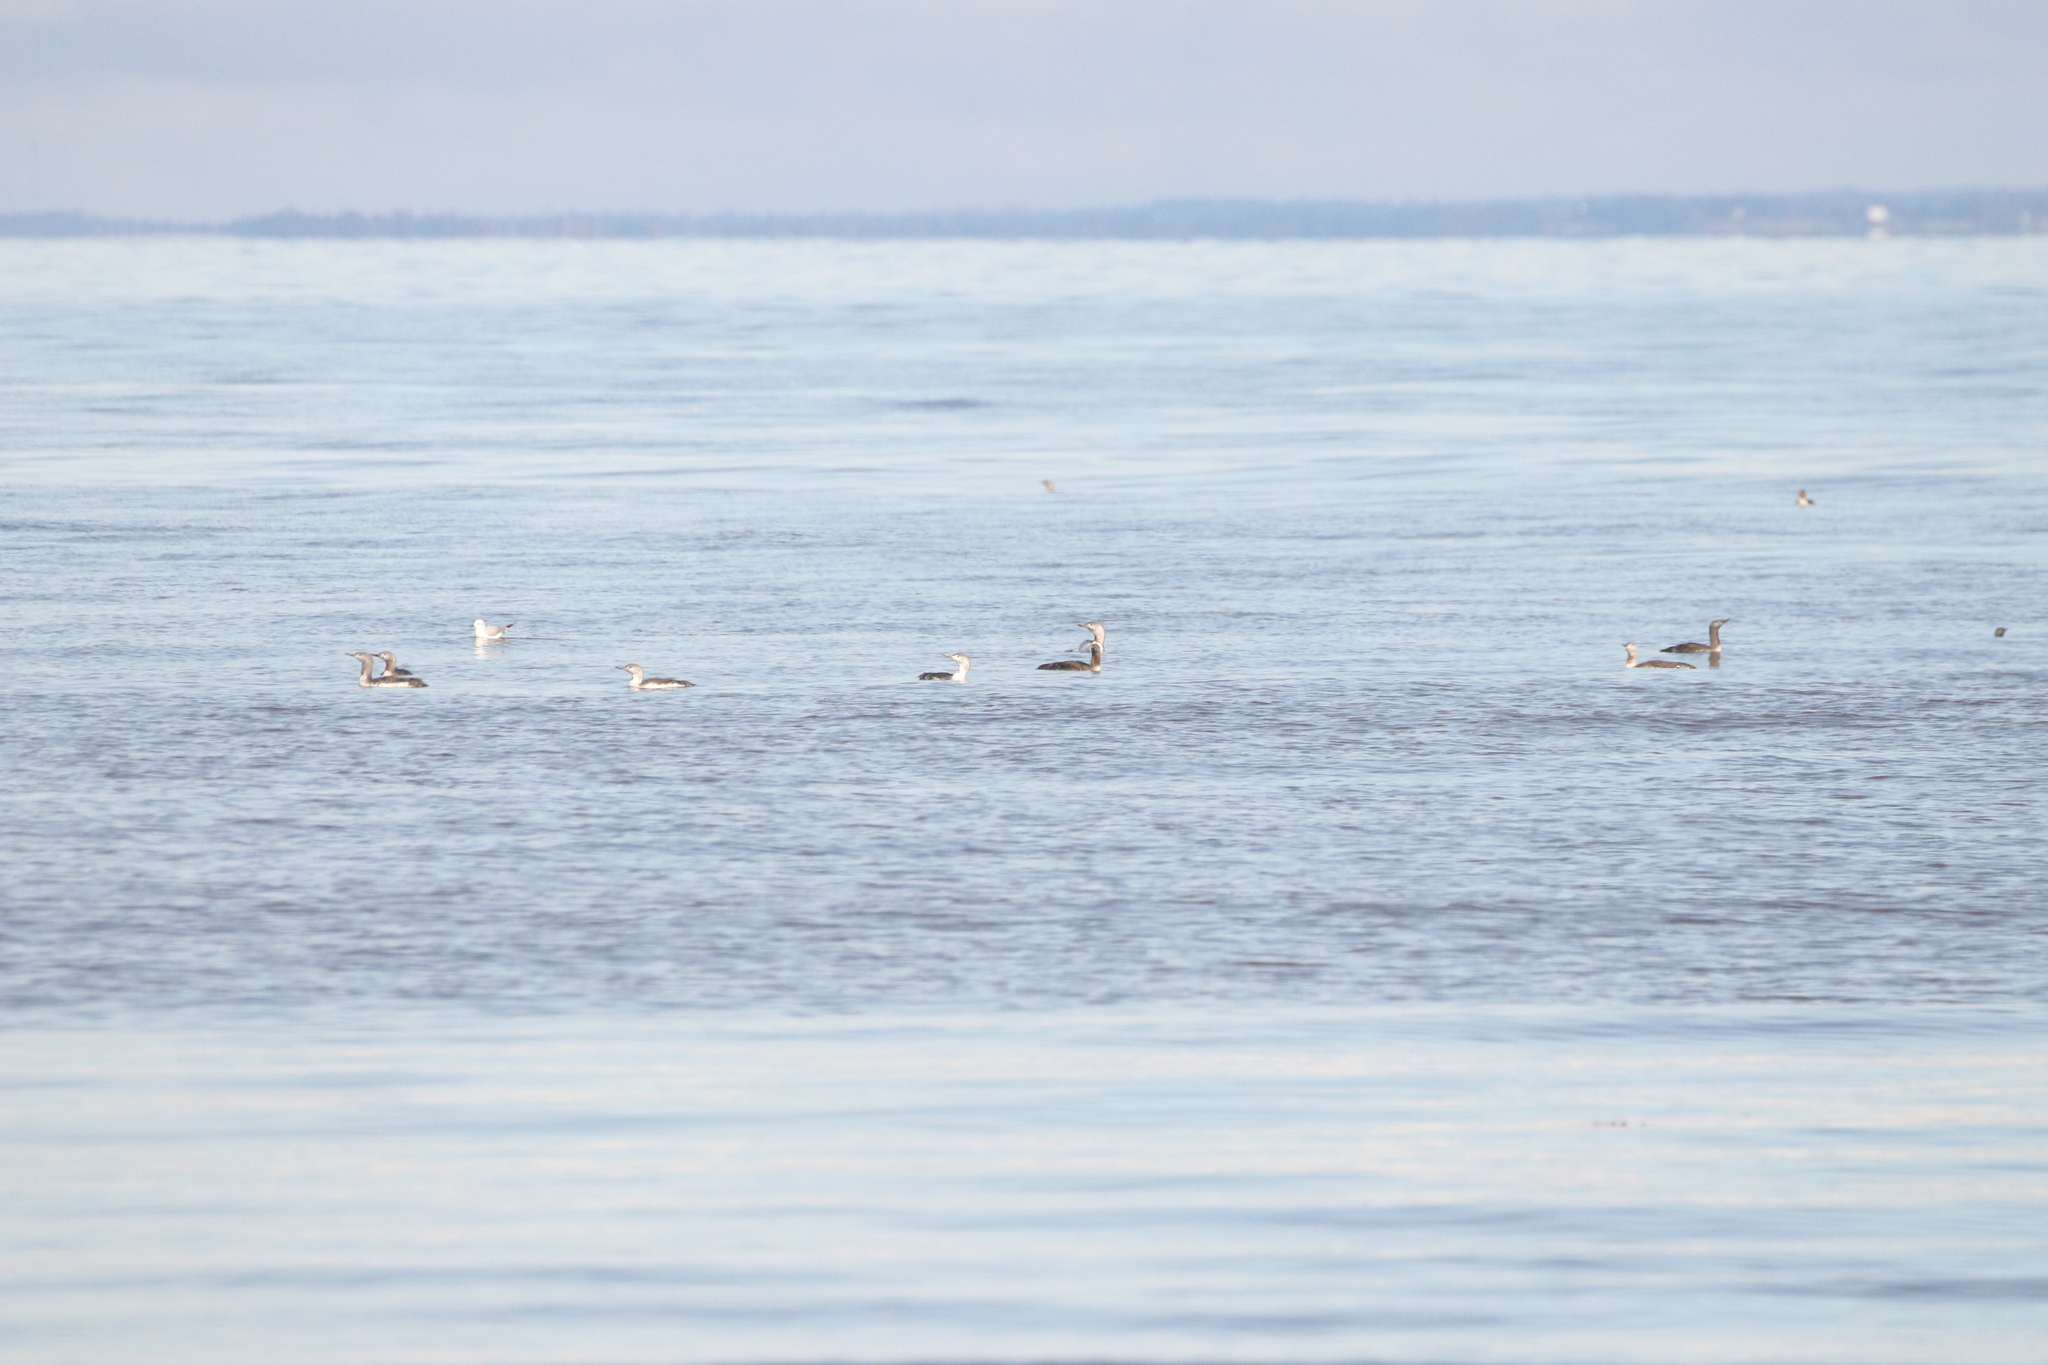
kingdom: Animalia
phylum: Chordata
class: Aves
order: Gaviiformes
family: Gaviidae
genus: Gavia
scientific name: Gavia stellata
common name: Red-throated loon
